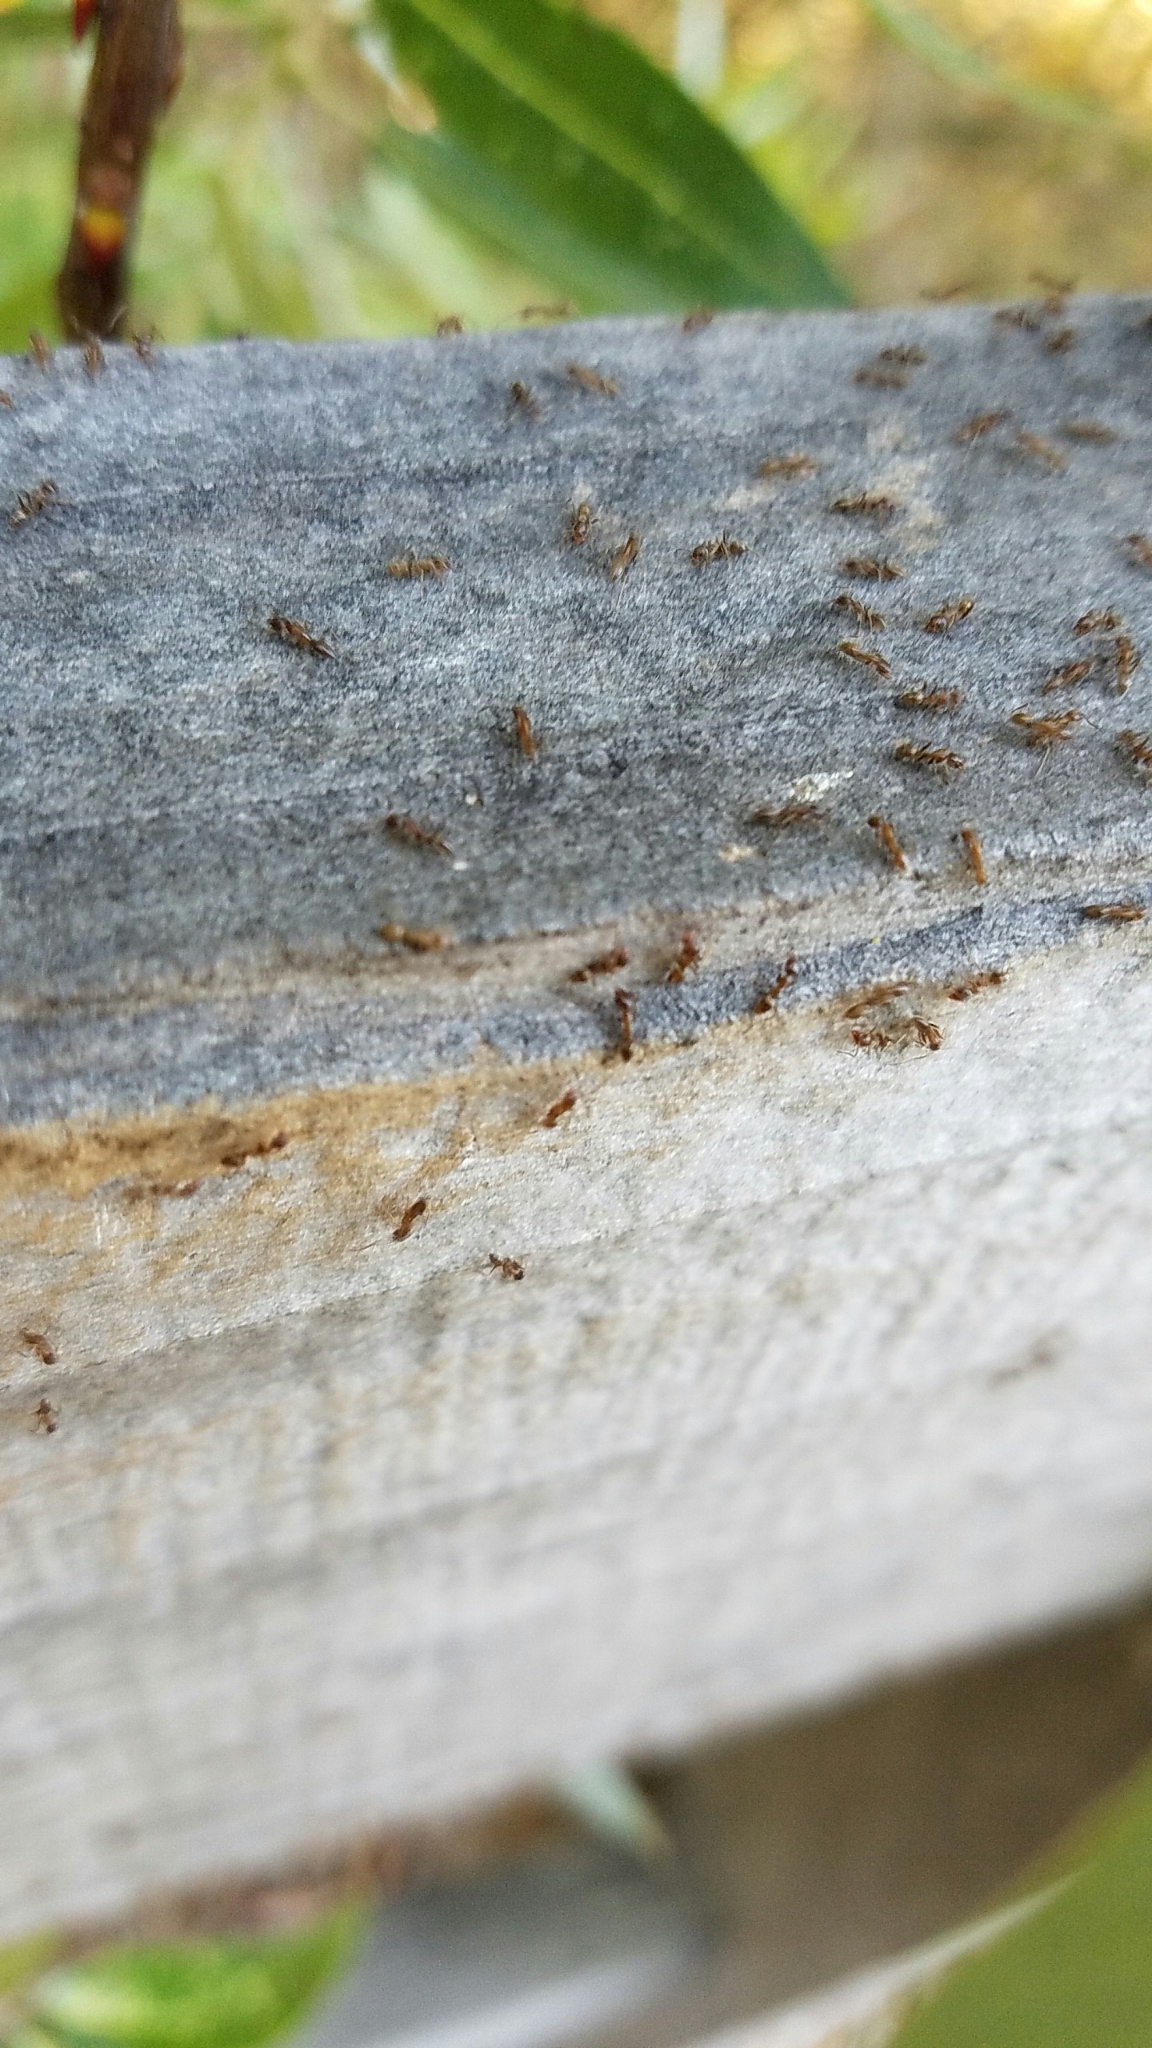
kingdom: Animalia
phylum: Arthropoda
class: Insecta
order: Hymenoptera
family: Formicidae
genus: Linepithema
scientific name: Linepithema humile
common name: Argentine ant
